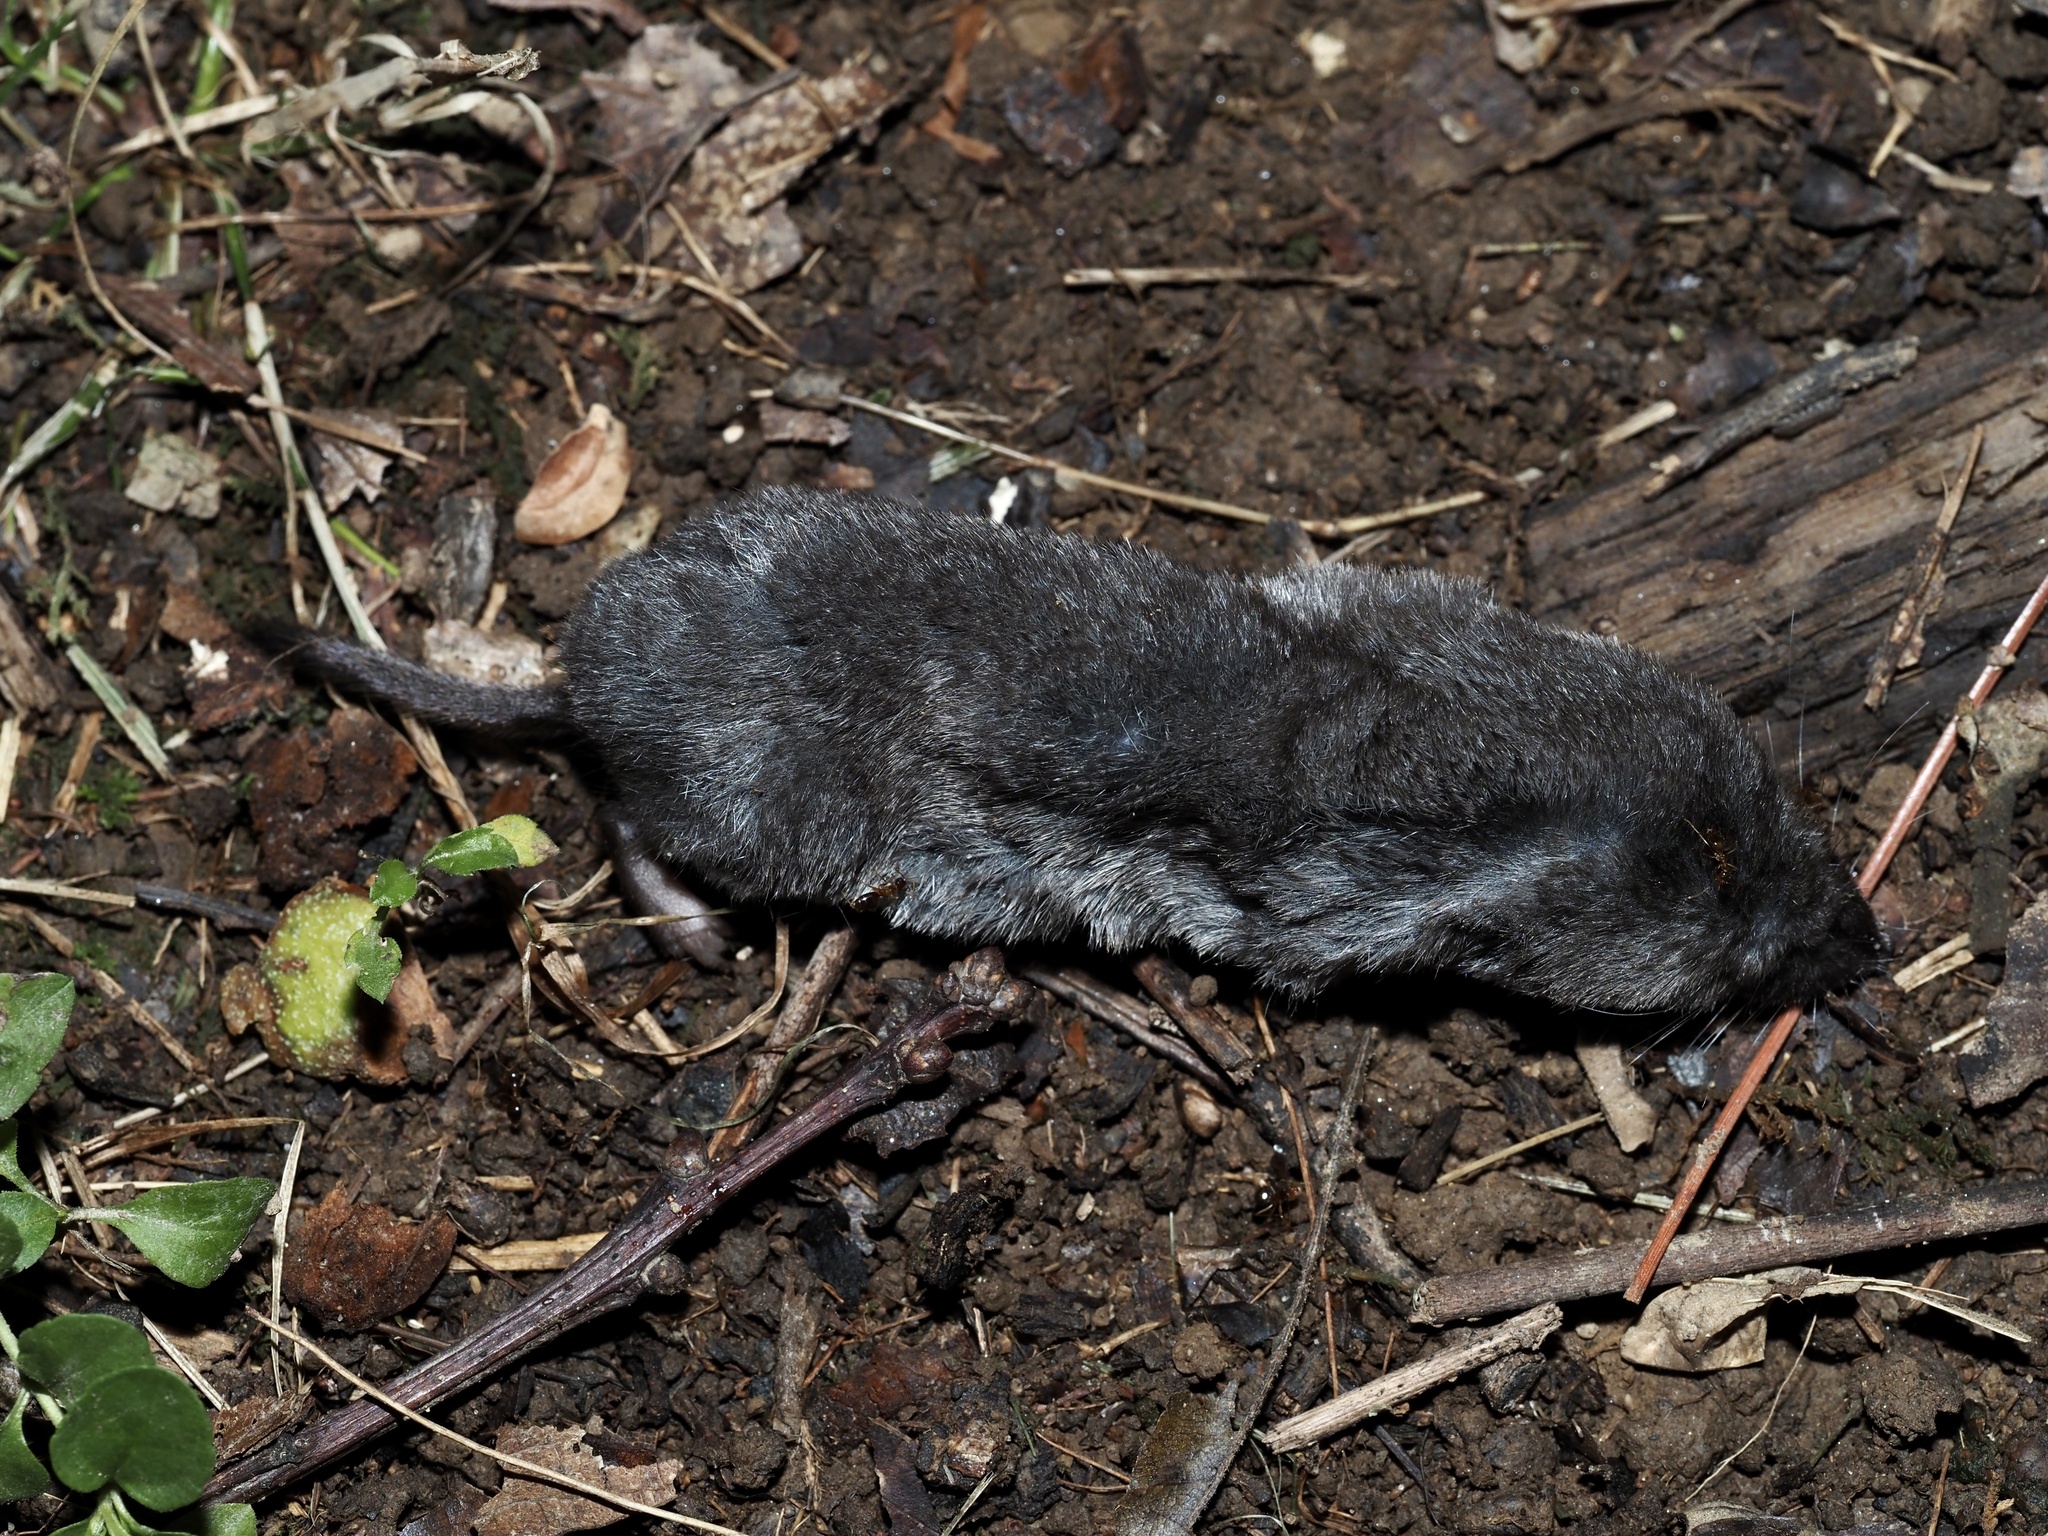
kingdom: Animalia
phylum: Chordata
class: Mammalia
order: Soricomorpha
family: Soricidae
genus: Blarina
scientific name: Blarina brevicauda
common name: Northern short-tailed shrew
